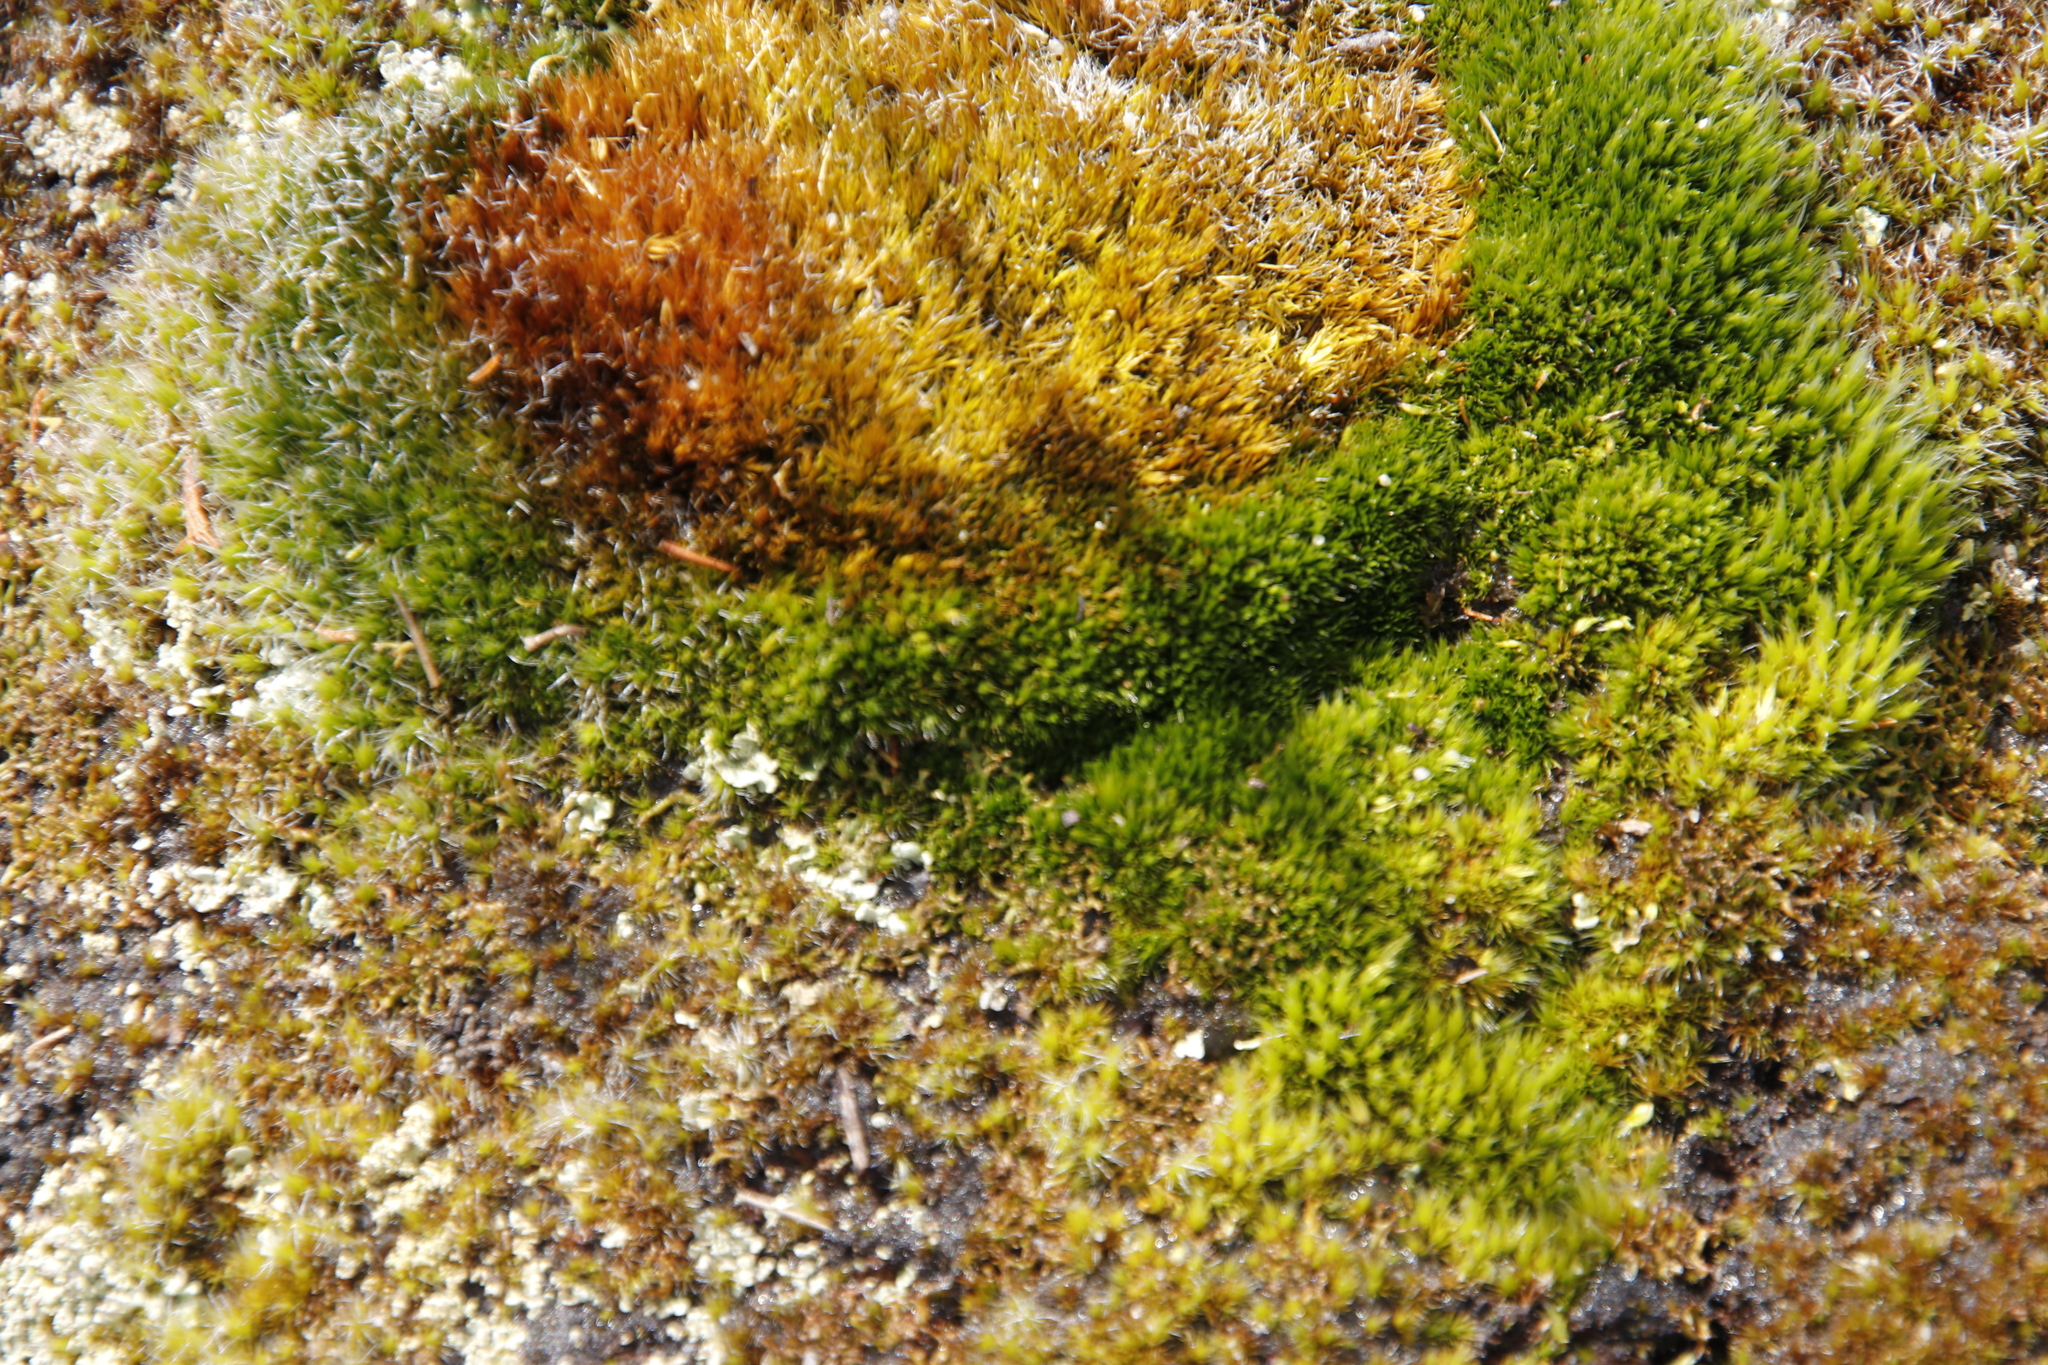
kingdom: Plantae
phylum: Bryophyta
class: Bryopsida
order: Dicranales
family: Leucobryaceae
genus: Campylopus
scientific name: Campylopus introflexus
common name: Heath star moss
